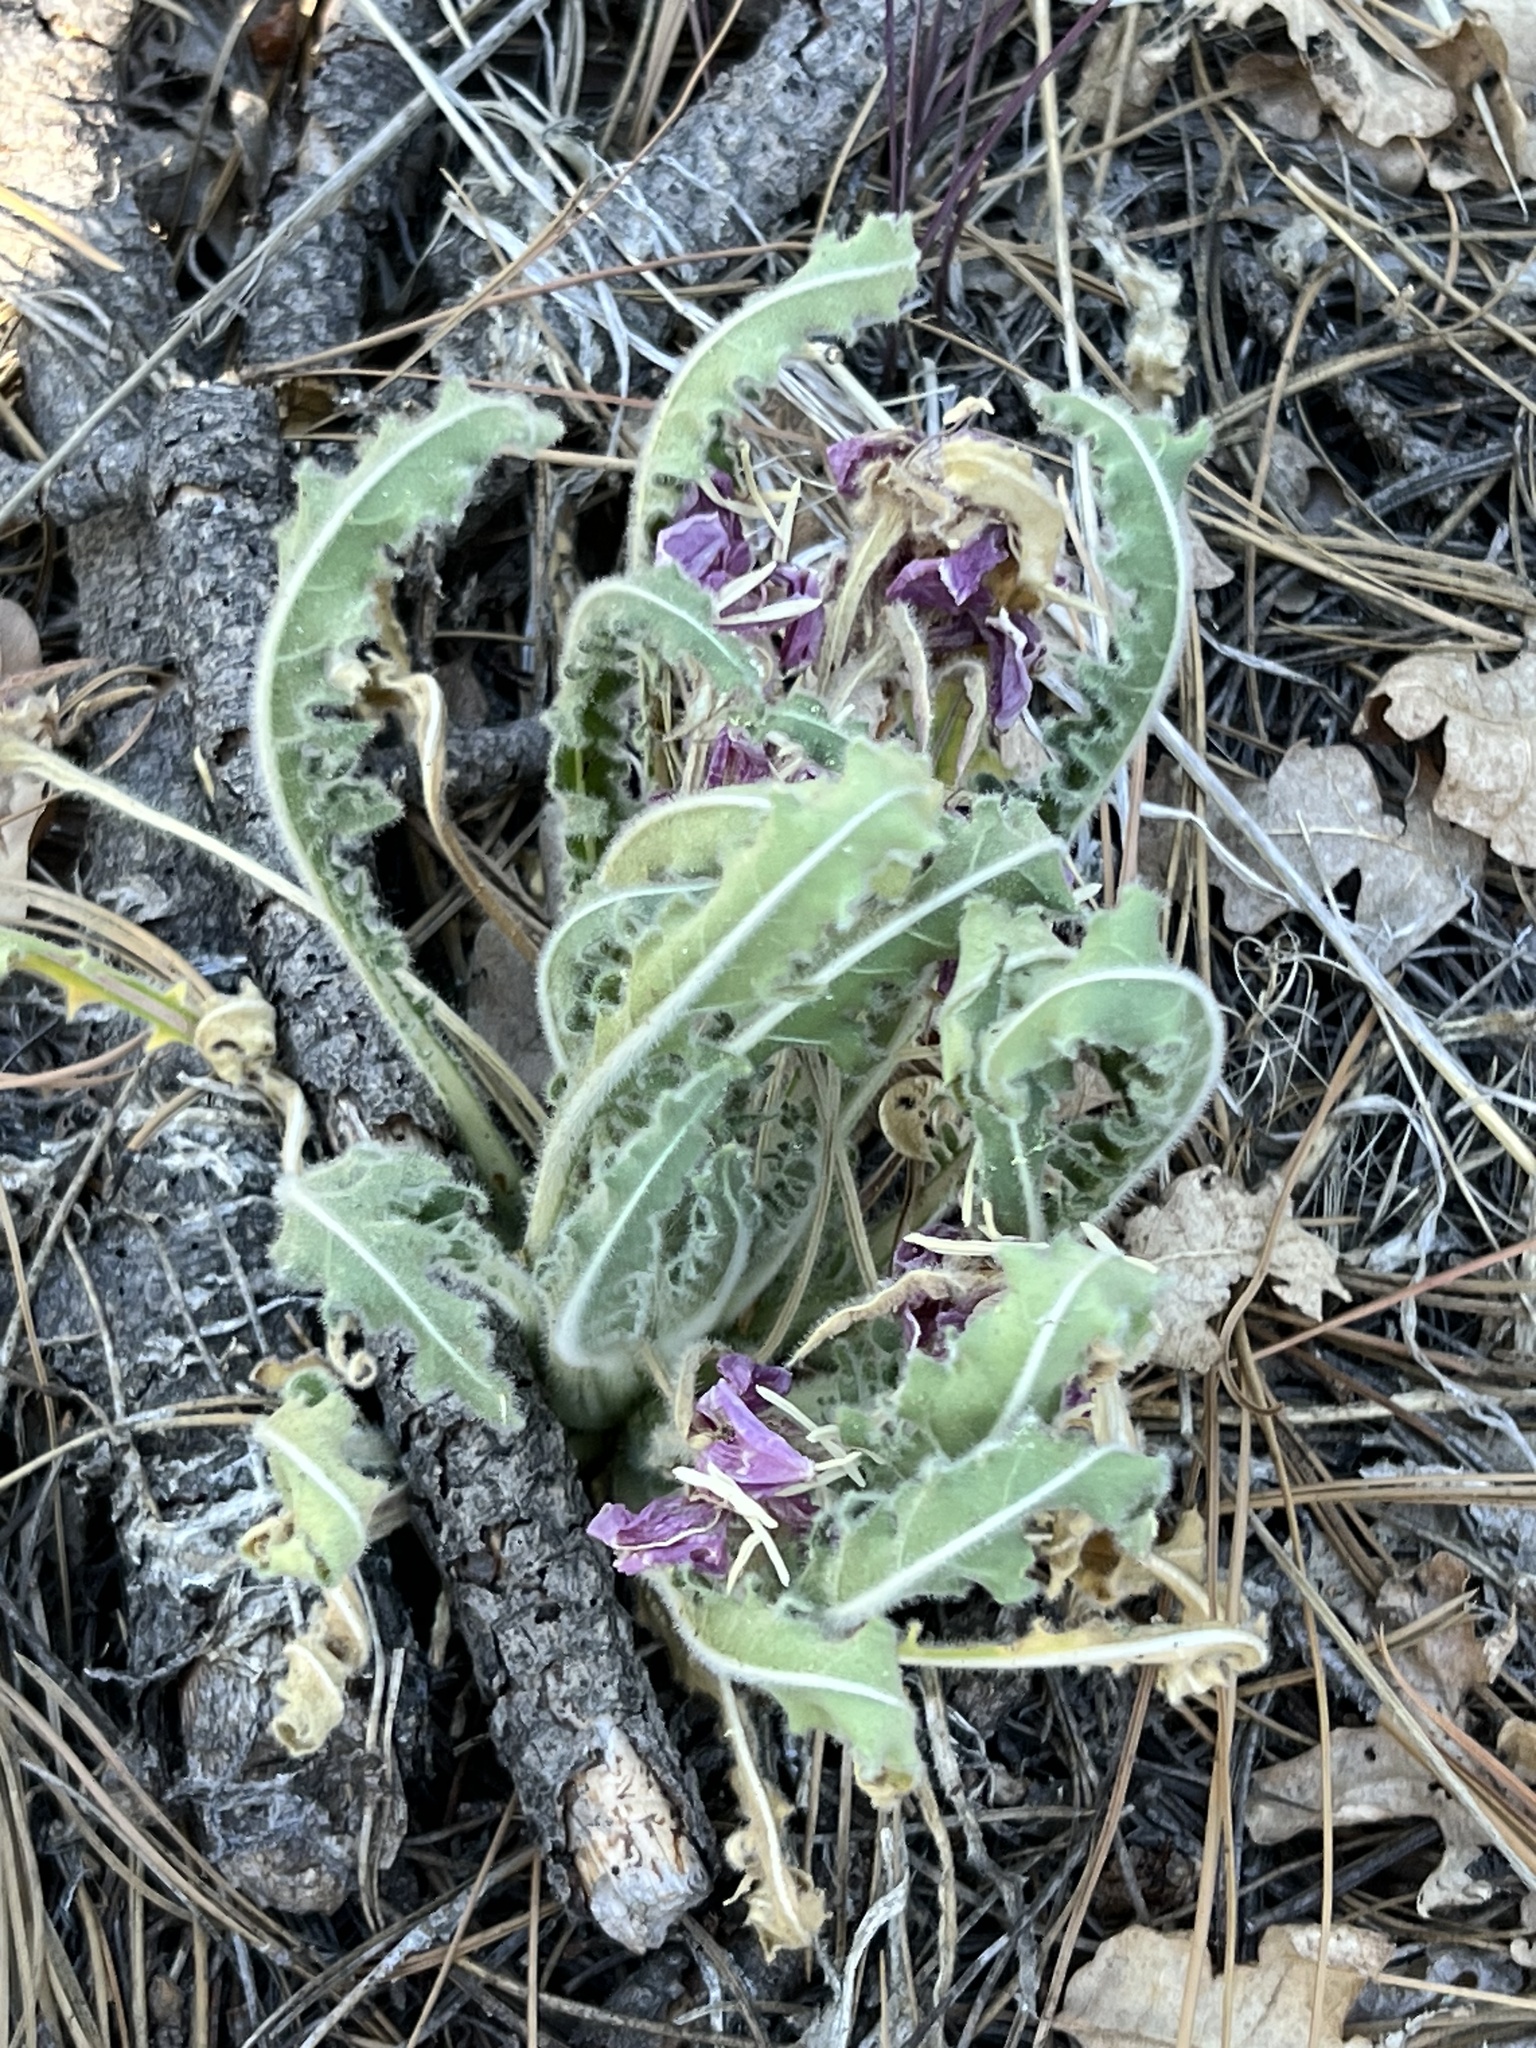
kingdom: Plantae
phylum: Tracheophyta
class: Magnoliopsida
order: Myrtales
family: Onagraceae
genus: Oenothera
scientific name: Oenothera cespitosa
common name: Tufted evening-primrose
